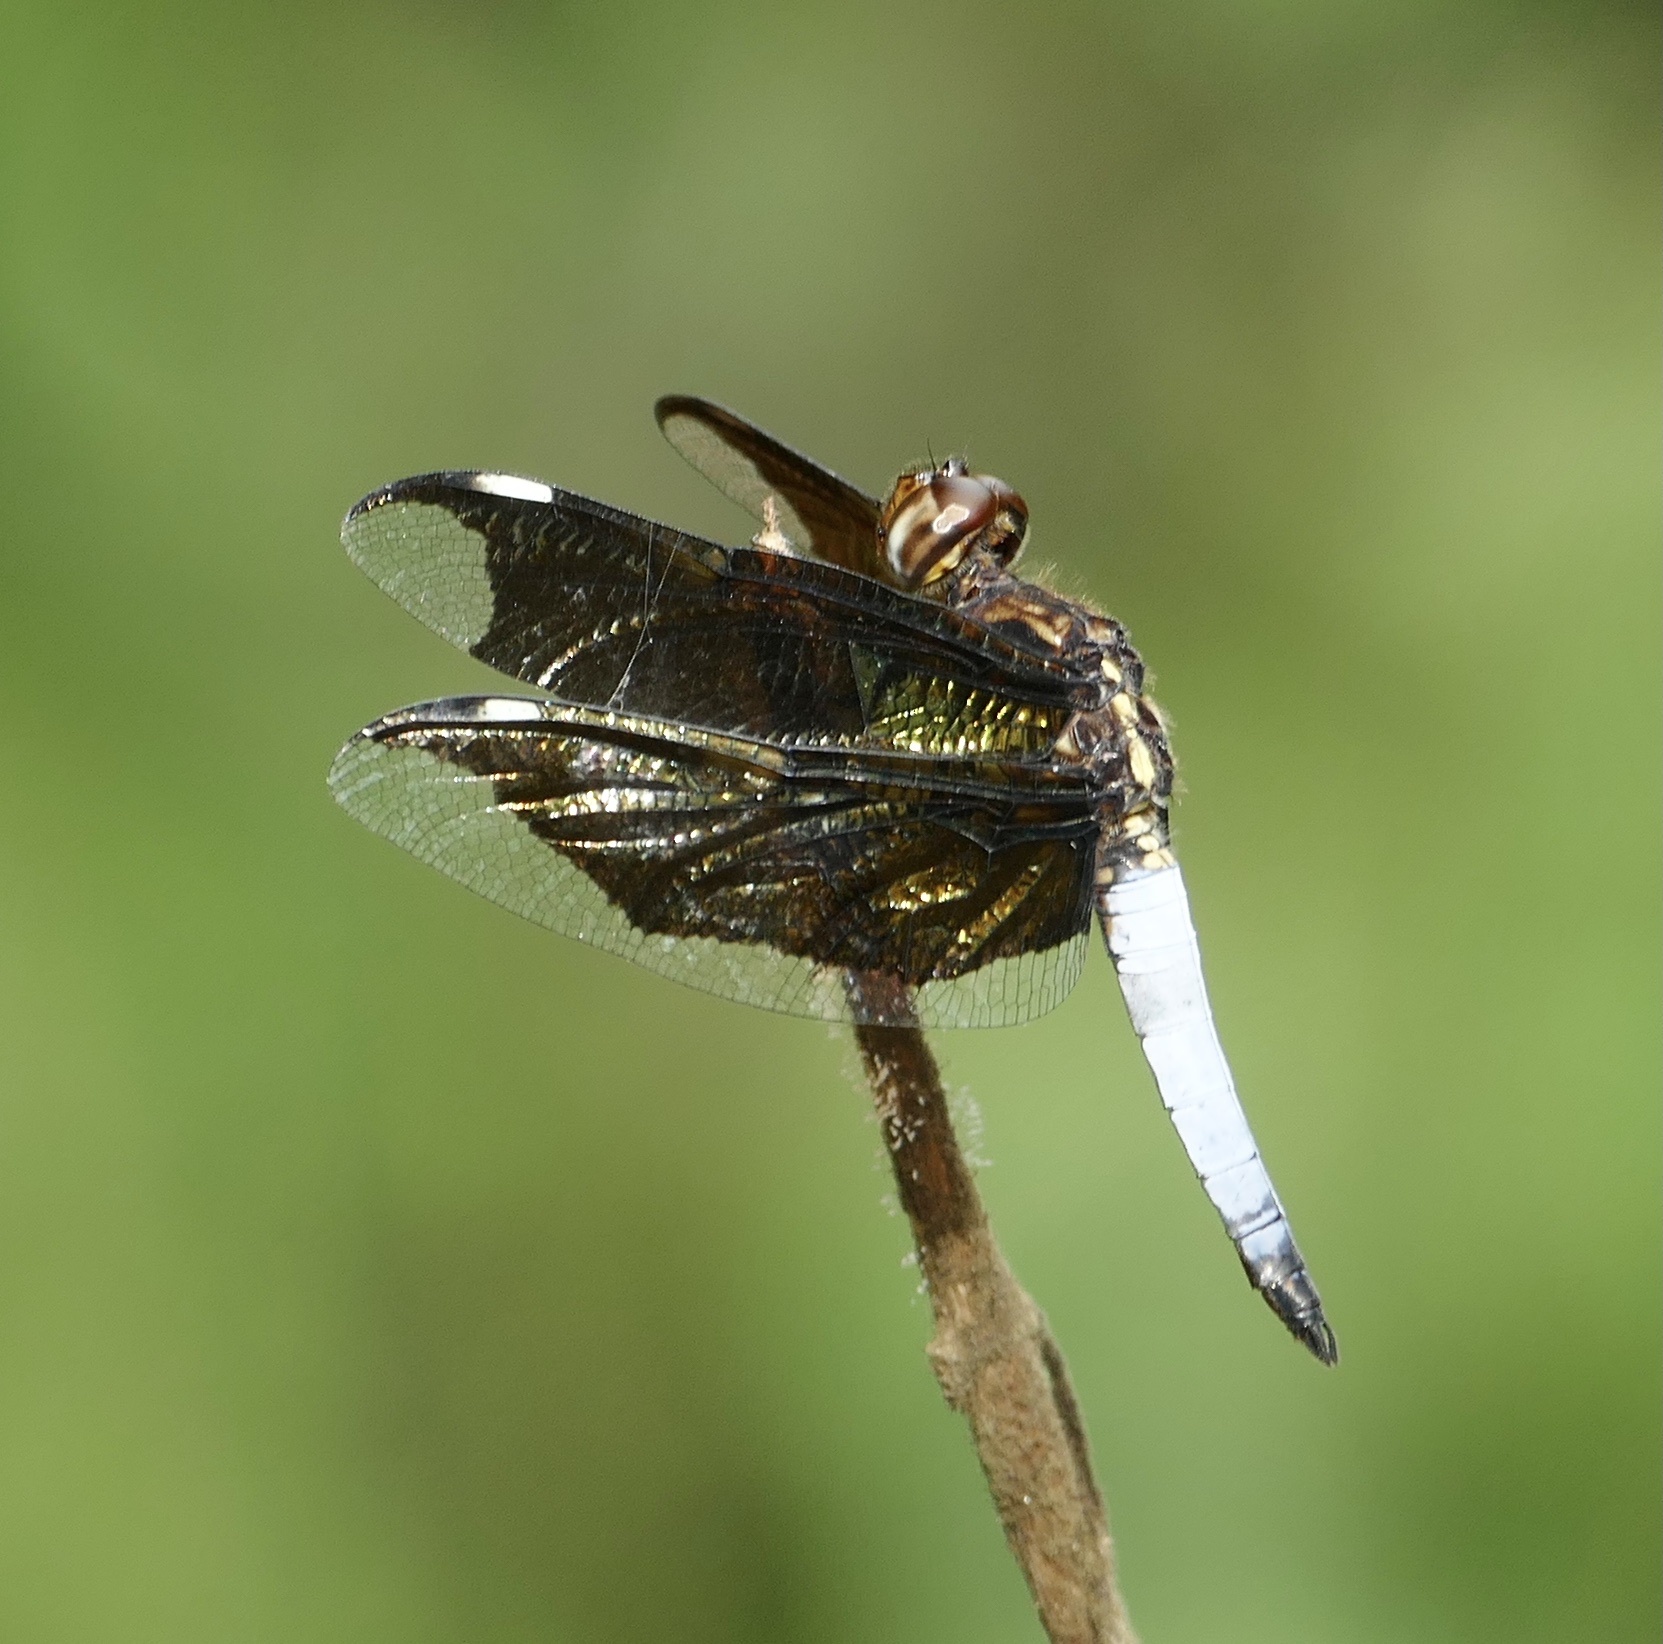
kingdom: Animalia
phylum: Arthropoda
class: Insecta
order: Odonata
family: Libellulidae
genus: Palpopleura
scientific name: Palpopleura lucia
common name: Lucia widow
